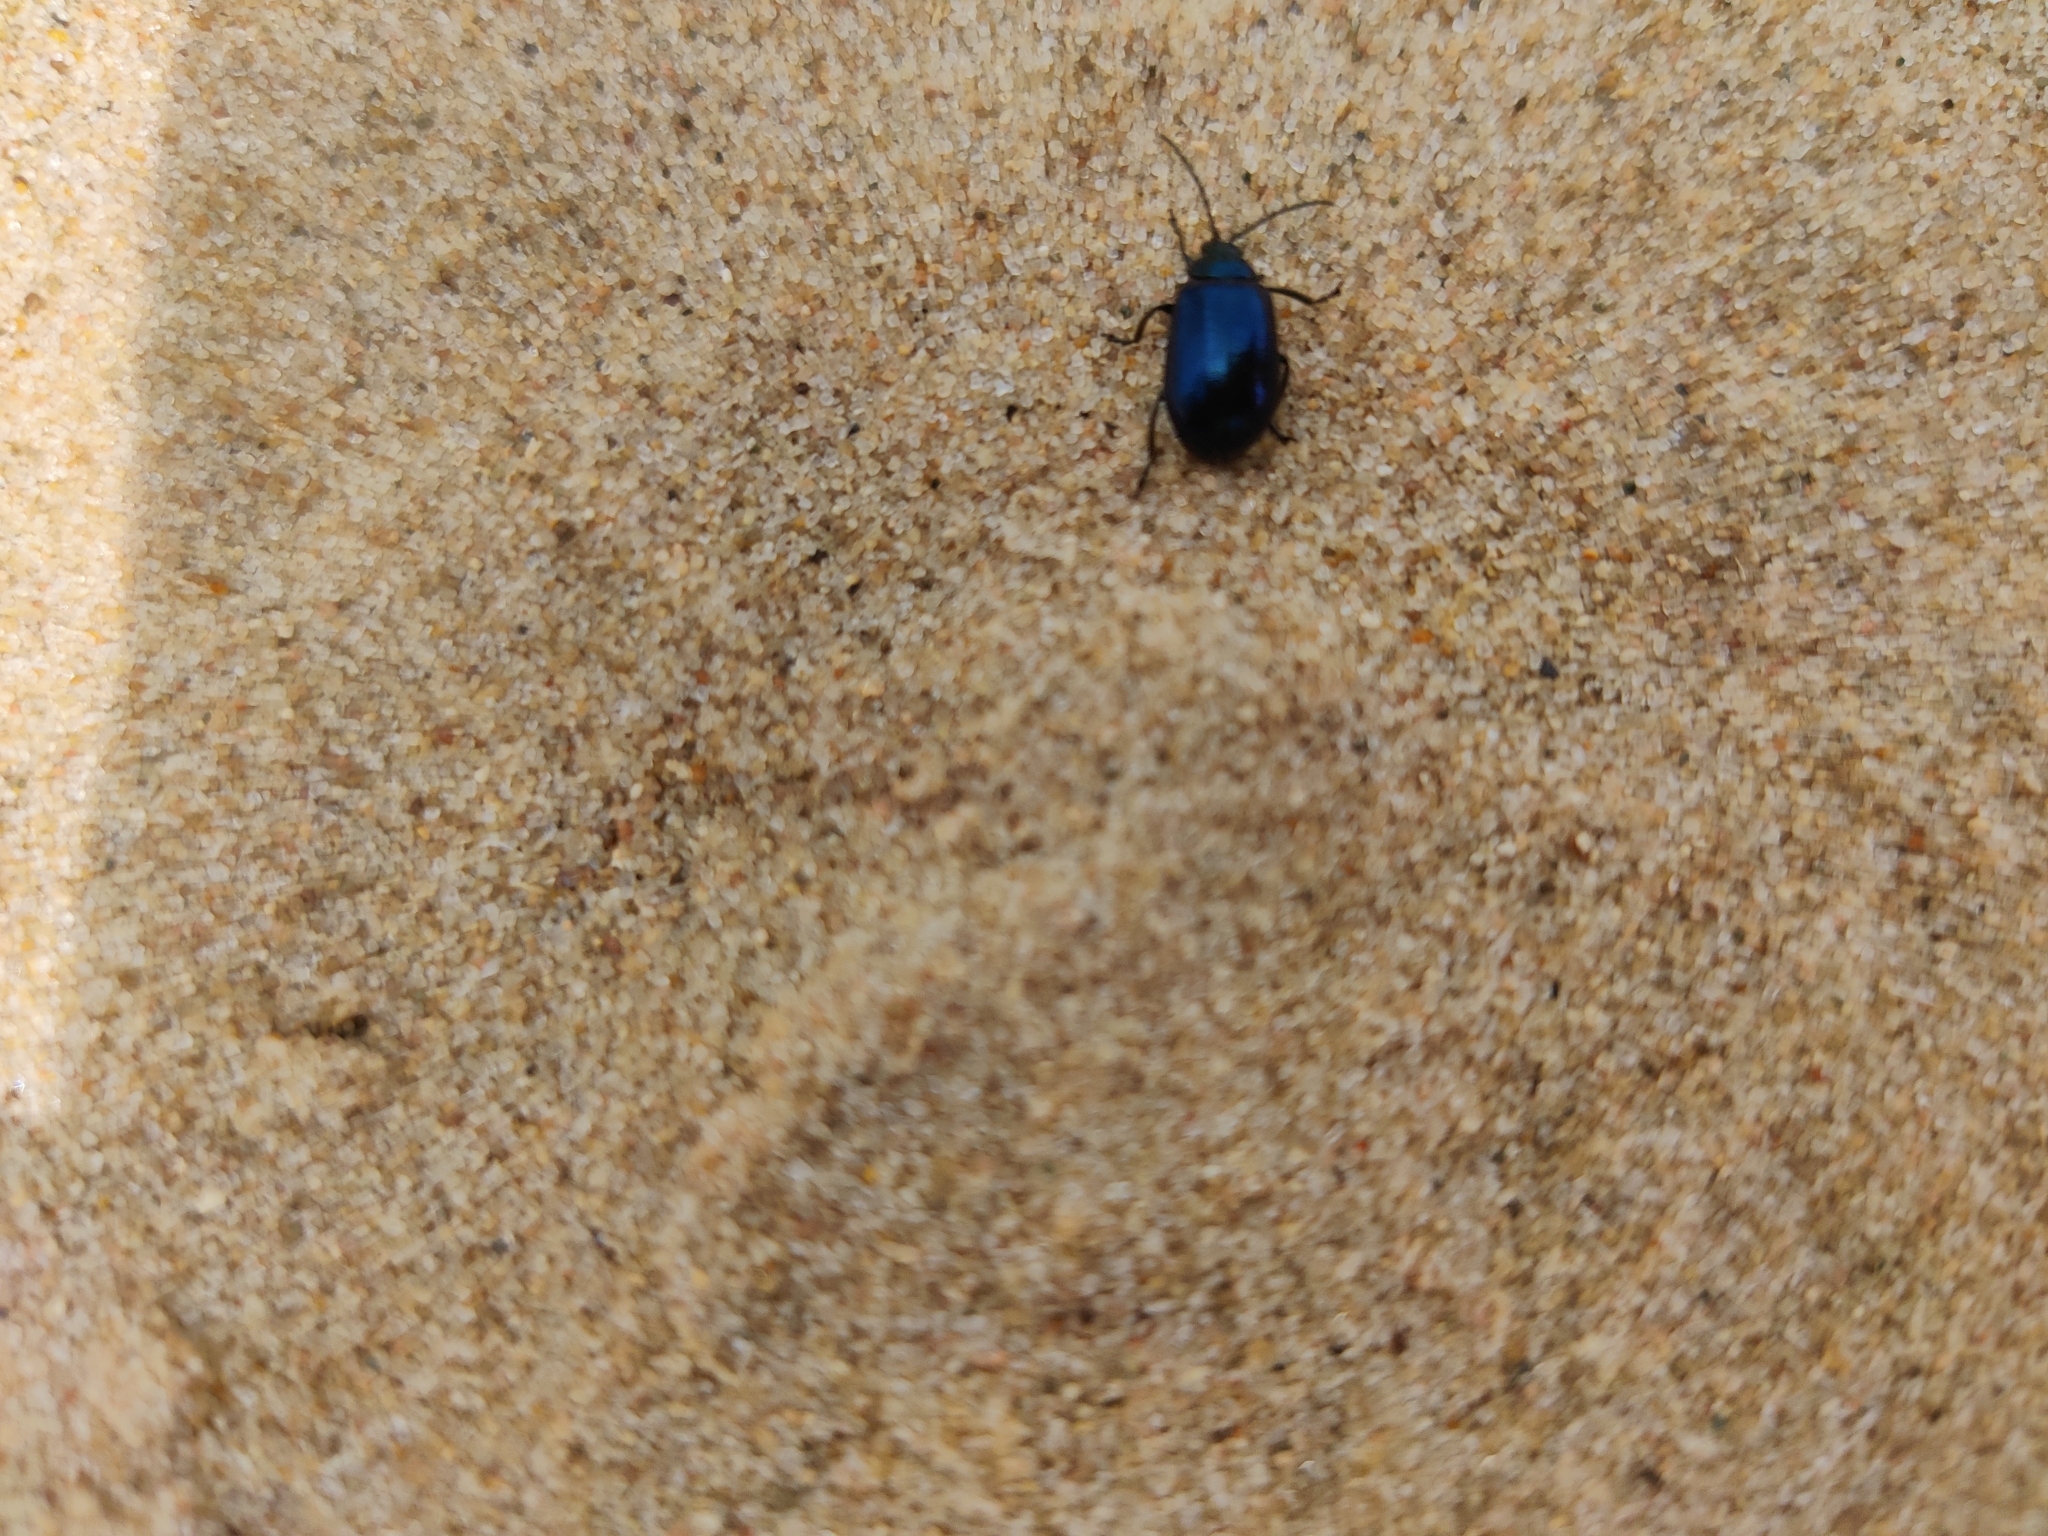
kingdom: Animalia
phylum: Arthropoda
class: Insecta
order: Coleoptera
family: Chrysomelidae
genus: Agelastica
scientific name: Agelastica alni
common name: Alder leaf beetle
